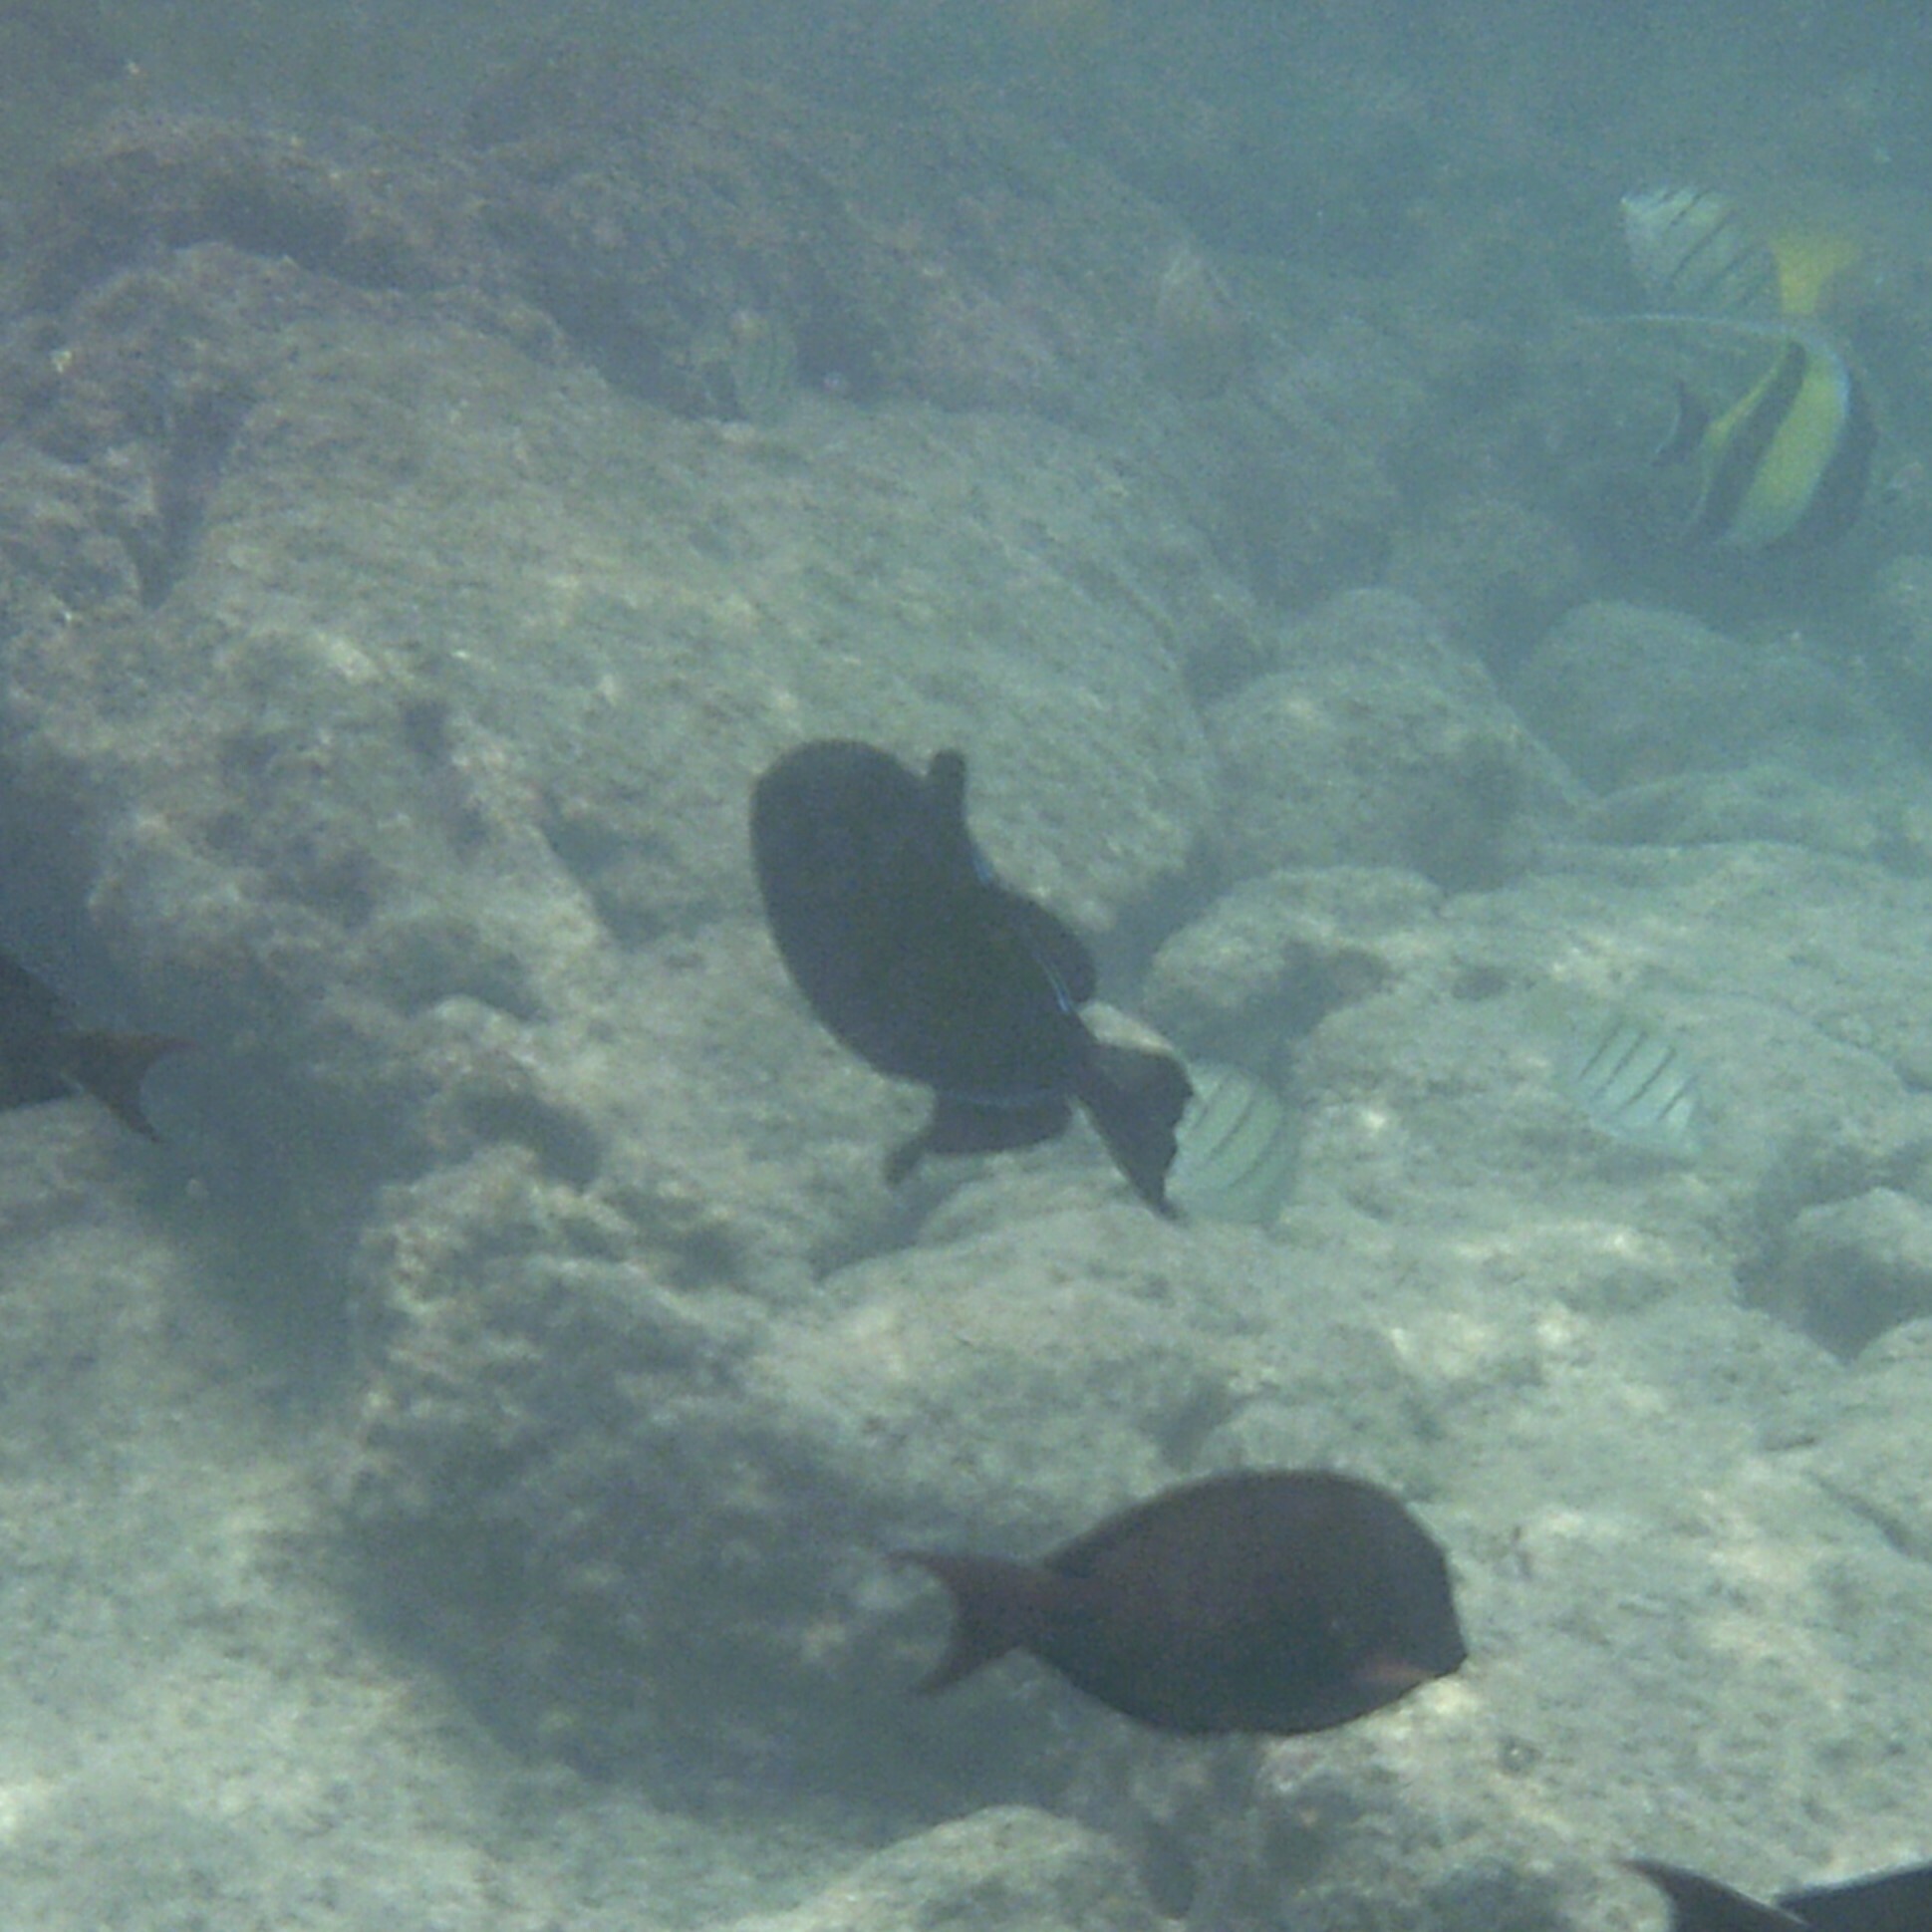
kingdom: Animalia
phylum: Chordata
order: Tetraodontiformes
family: Balistidae
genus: Melichthys
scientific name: Melichthys niger
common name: Black durgon
